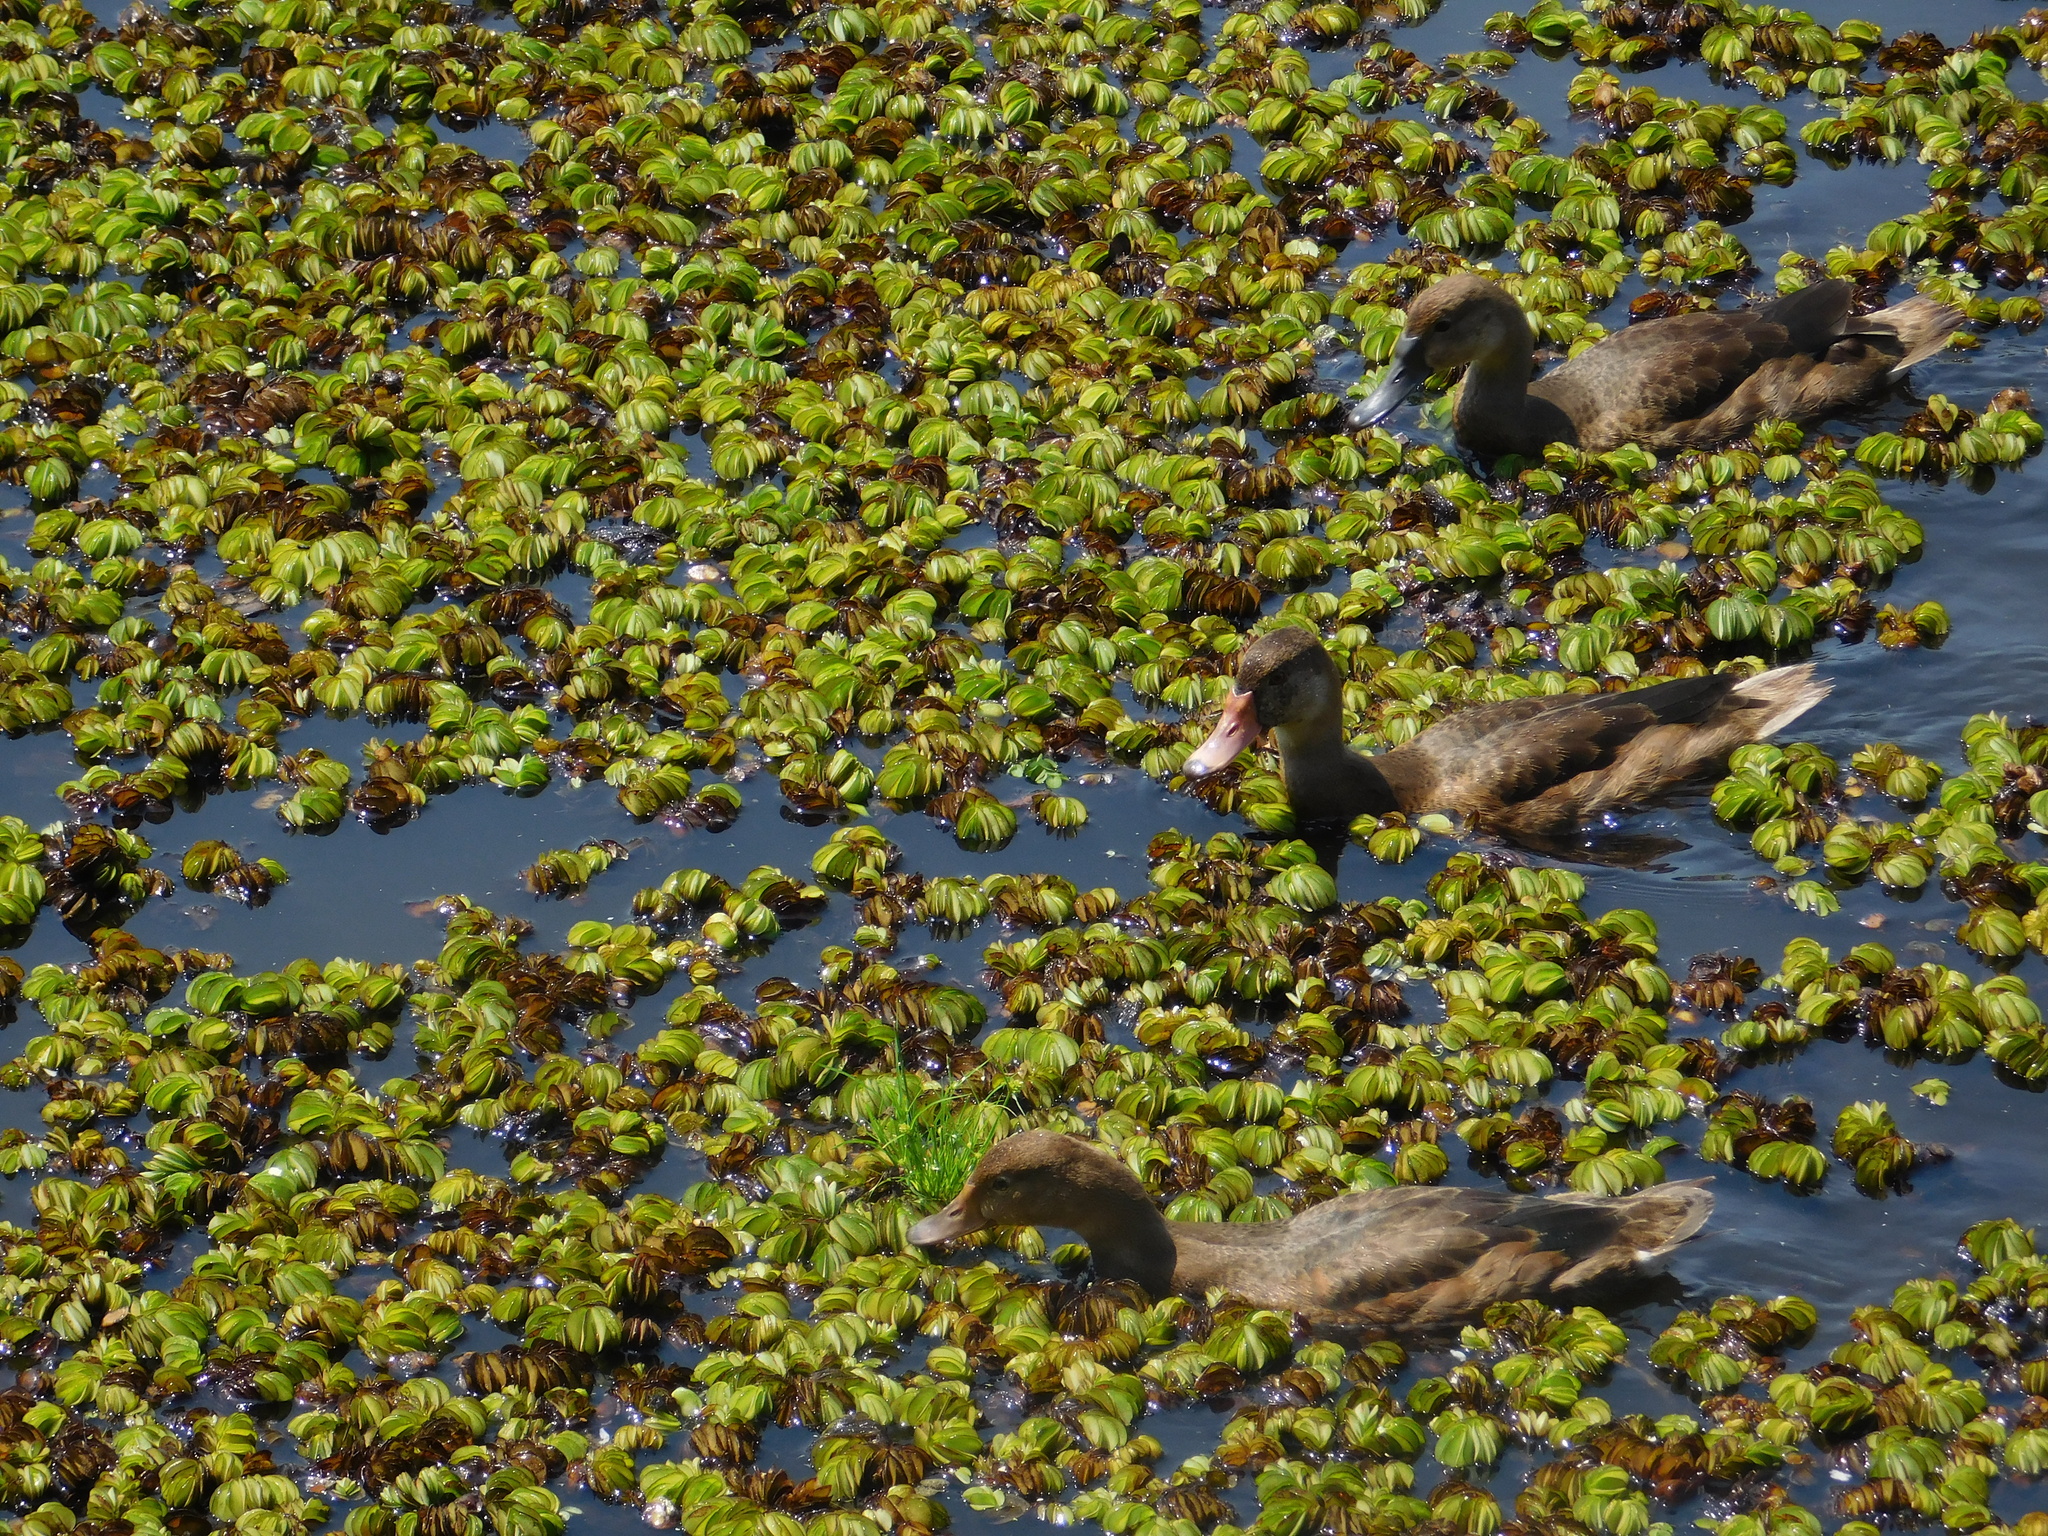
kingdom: Animalia
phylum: Chordata
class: Aves
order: Anseriformes
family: Anatidae
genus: Netta
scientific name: Netta peposaca
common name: Rosy-billed pochard
